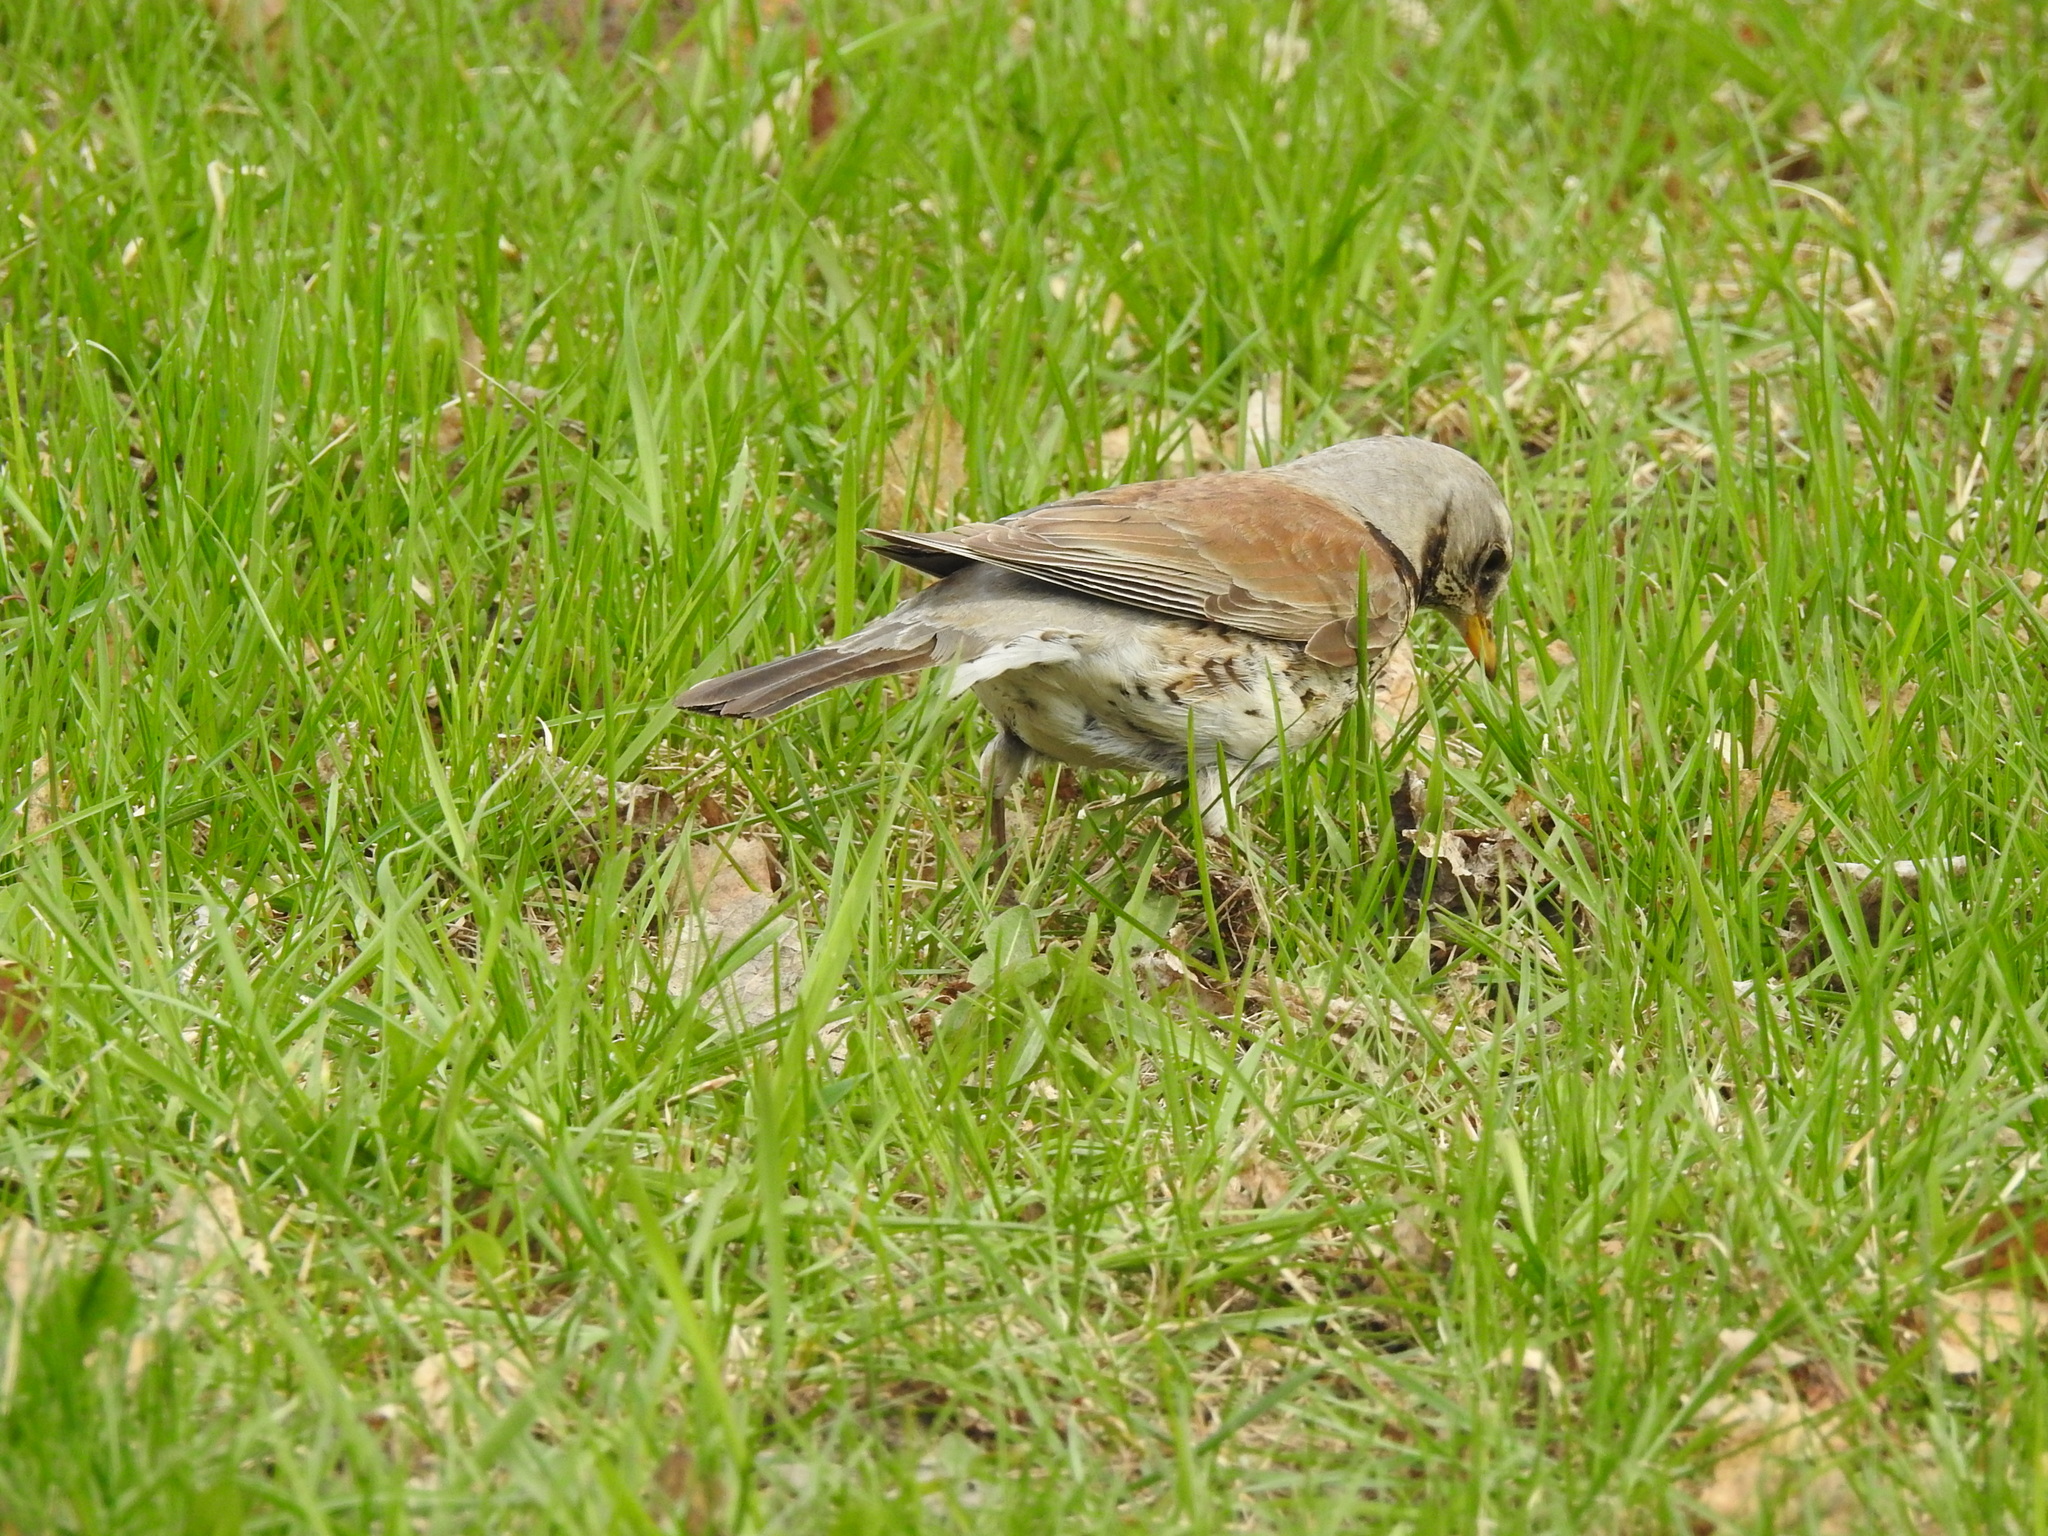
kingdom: Animalia
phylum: Chordata
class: Aves
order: Passeriformes
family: Turdidae
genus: Turdus
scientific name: Turdus pilaris
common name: Fieldfare
